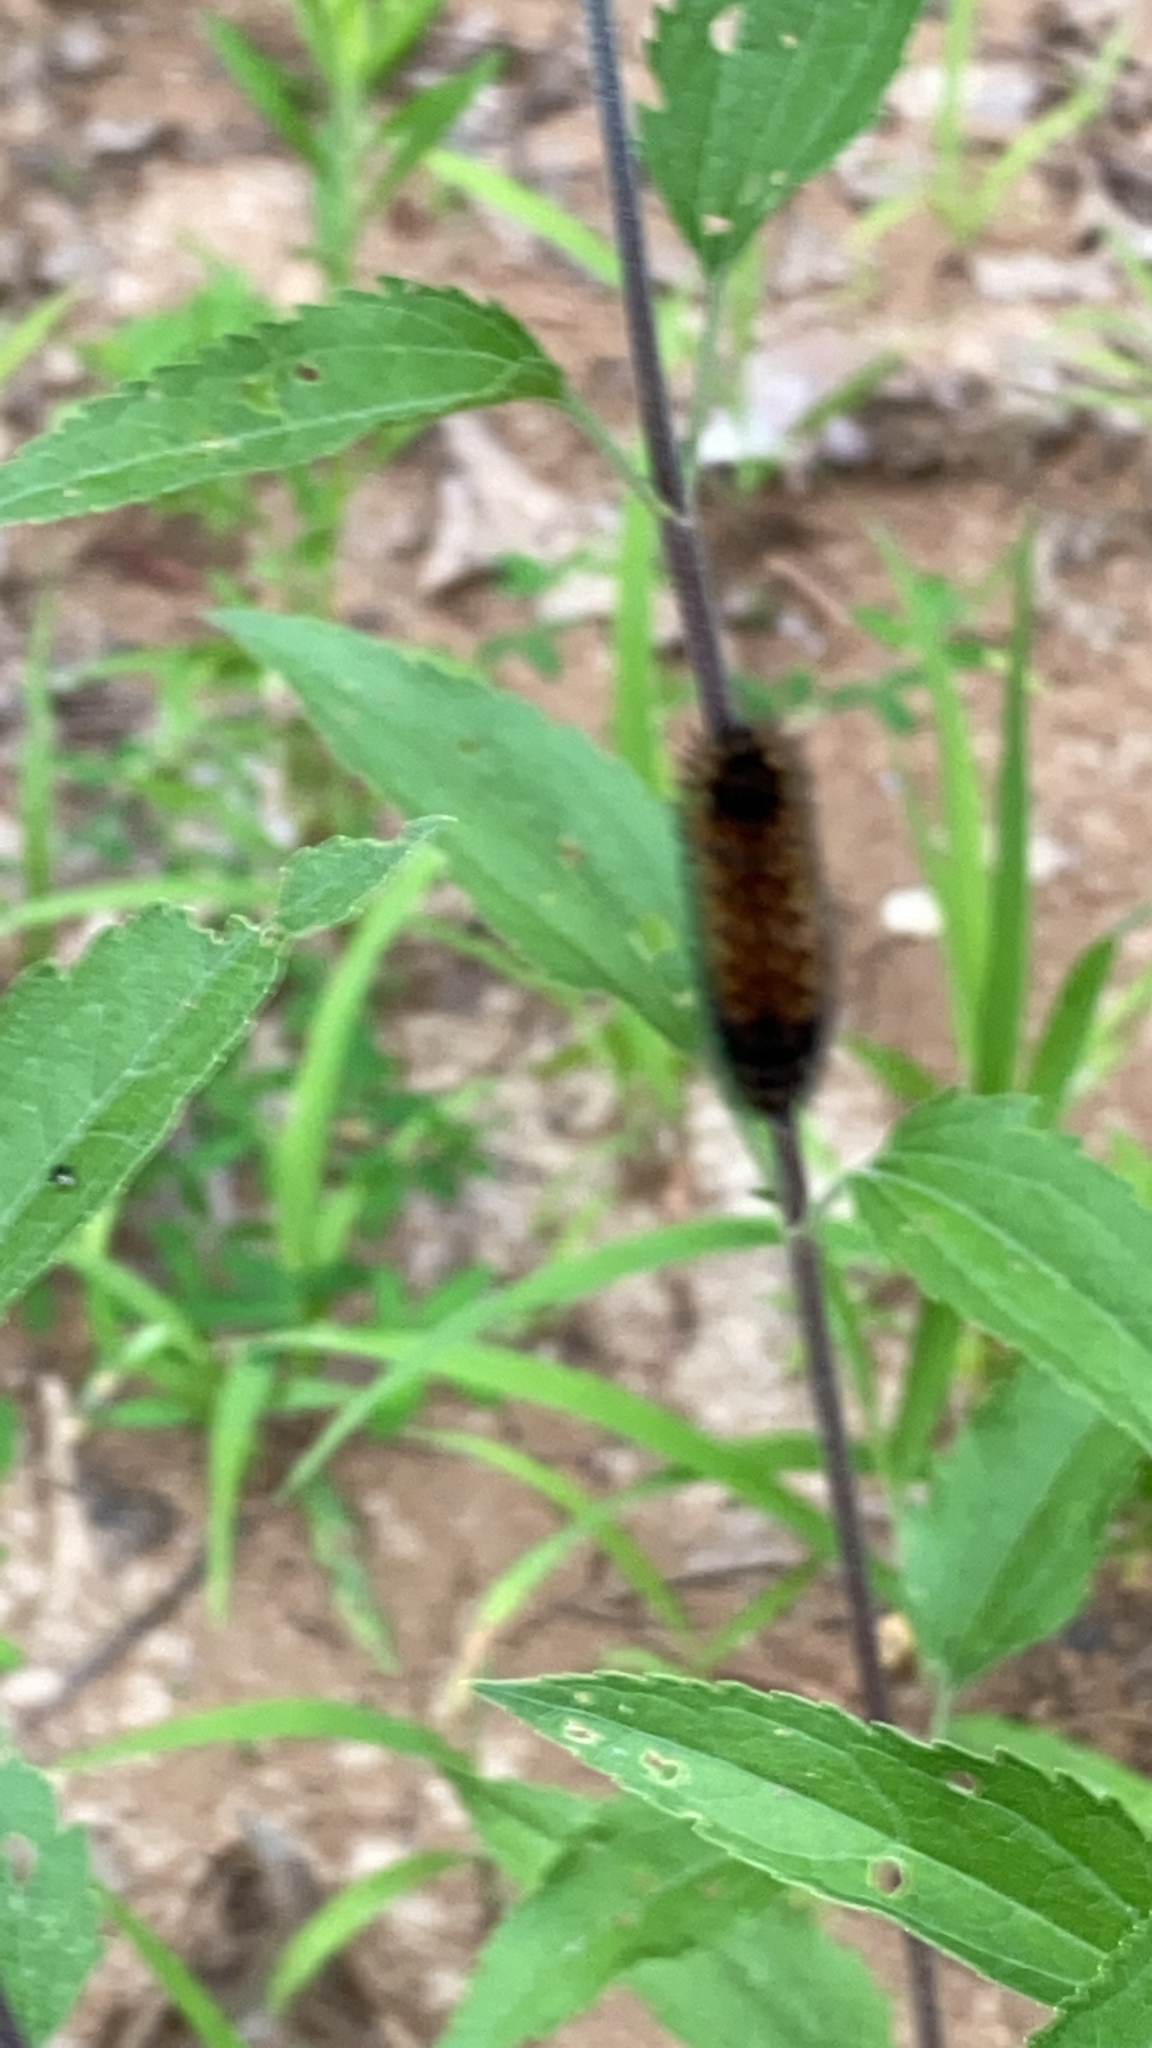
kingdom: Animalia
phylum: Arthropoda
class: Insecta
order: Lepidoptera
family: Erebidae
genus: Pyrrharctia
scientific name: Pyrrharctia isabella
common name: Isabella tiger moth
